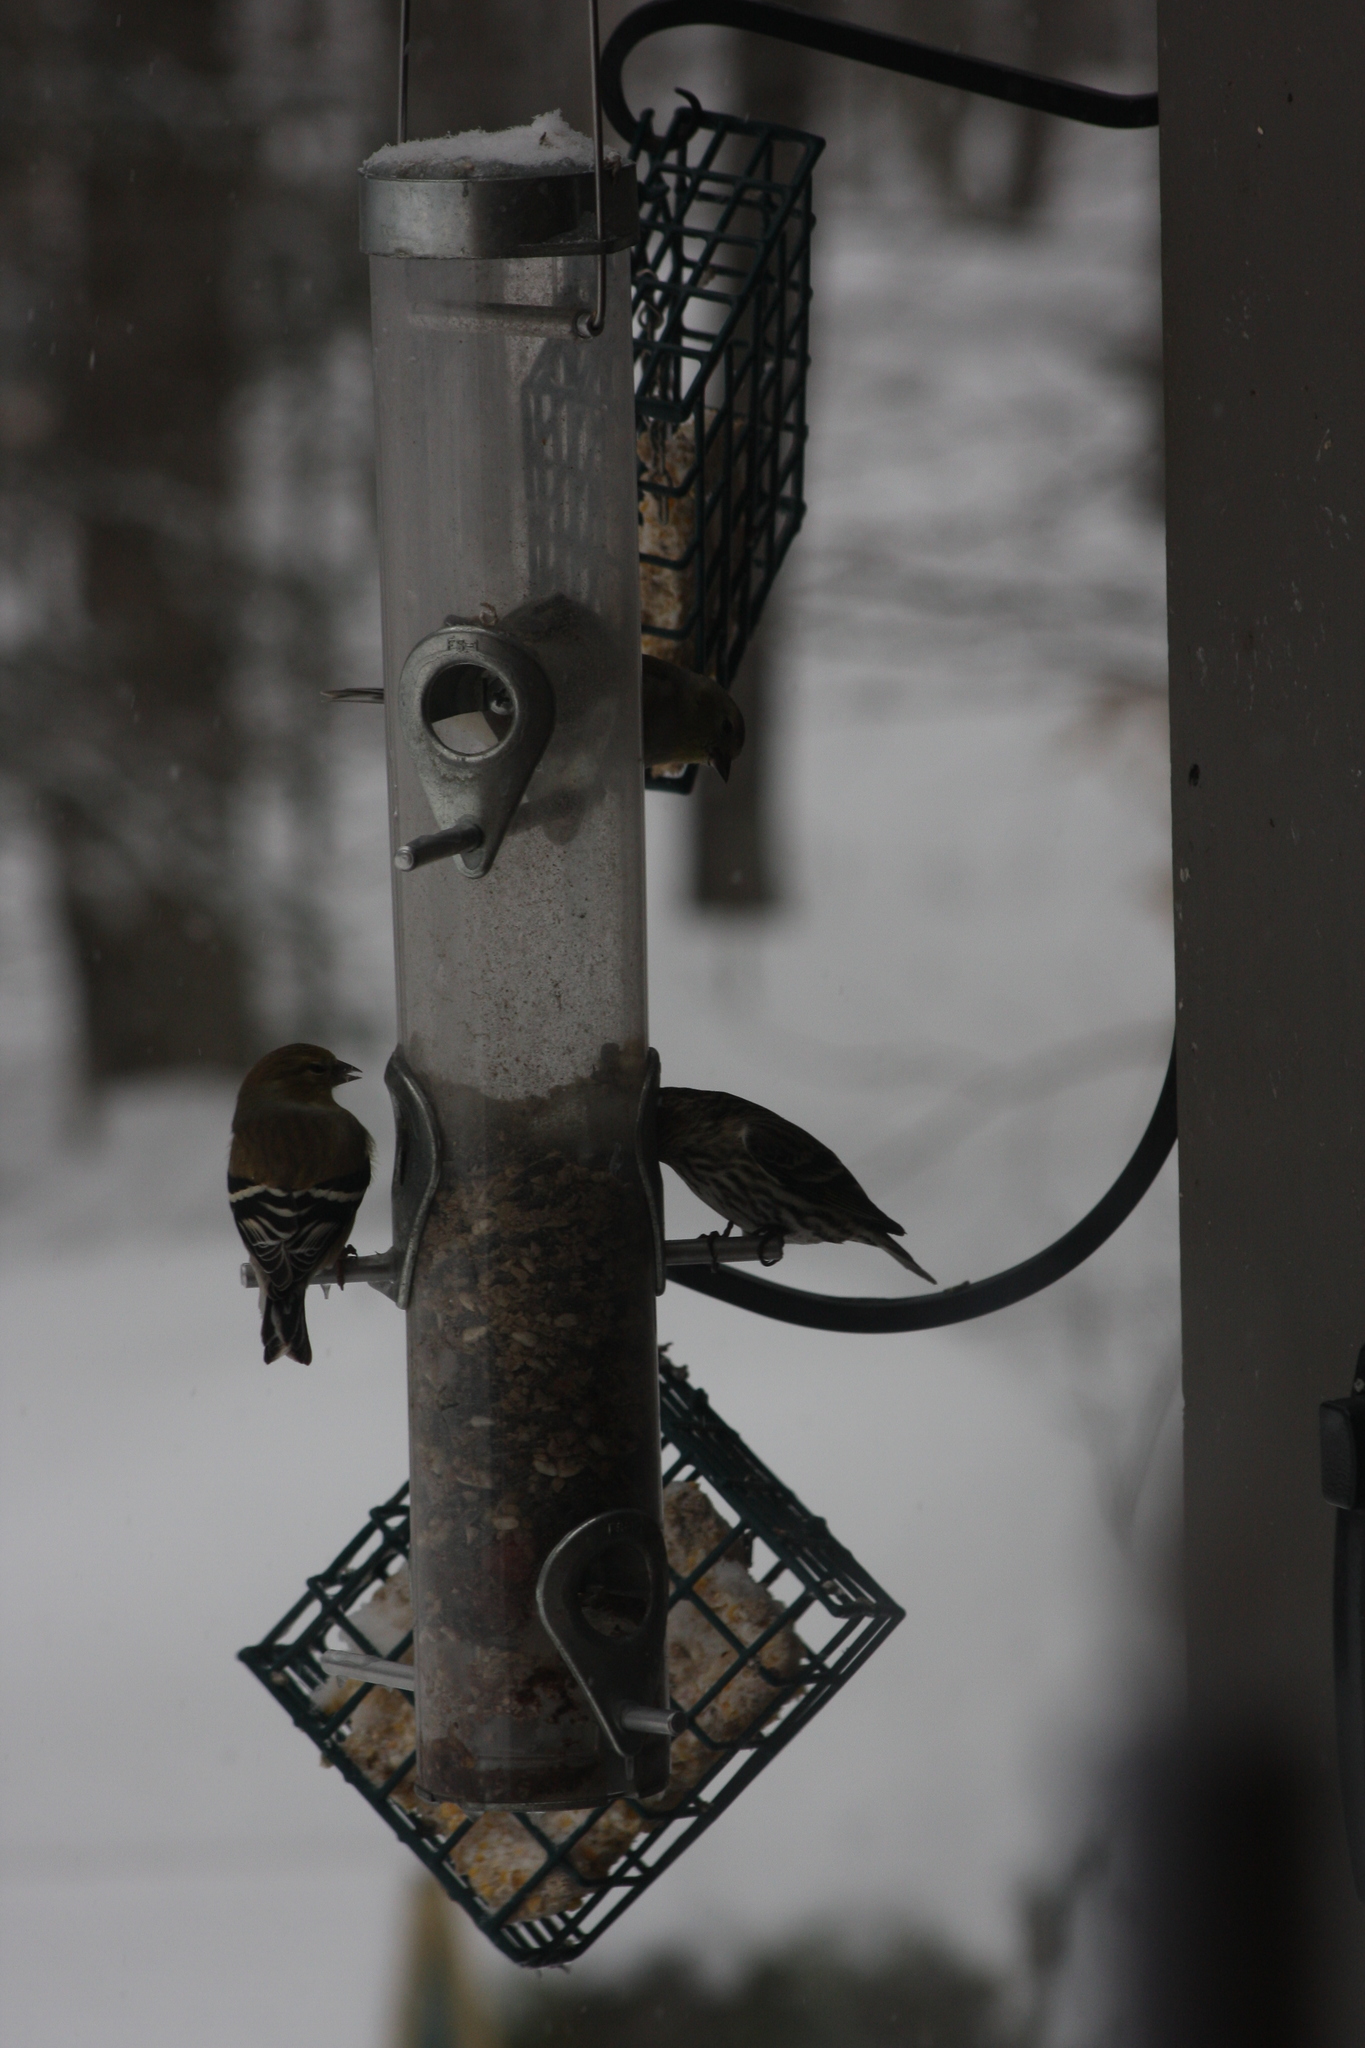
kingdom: Animalia
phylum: Chordata
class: Aves
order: Passeriformes
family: Fringillidae
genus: Spinus
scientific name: Spinus pinus
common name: Pine siskin
